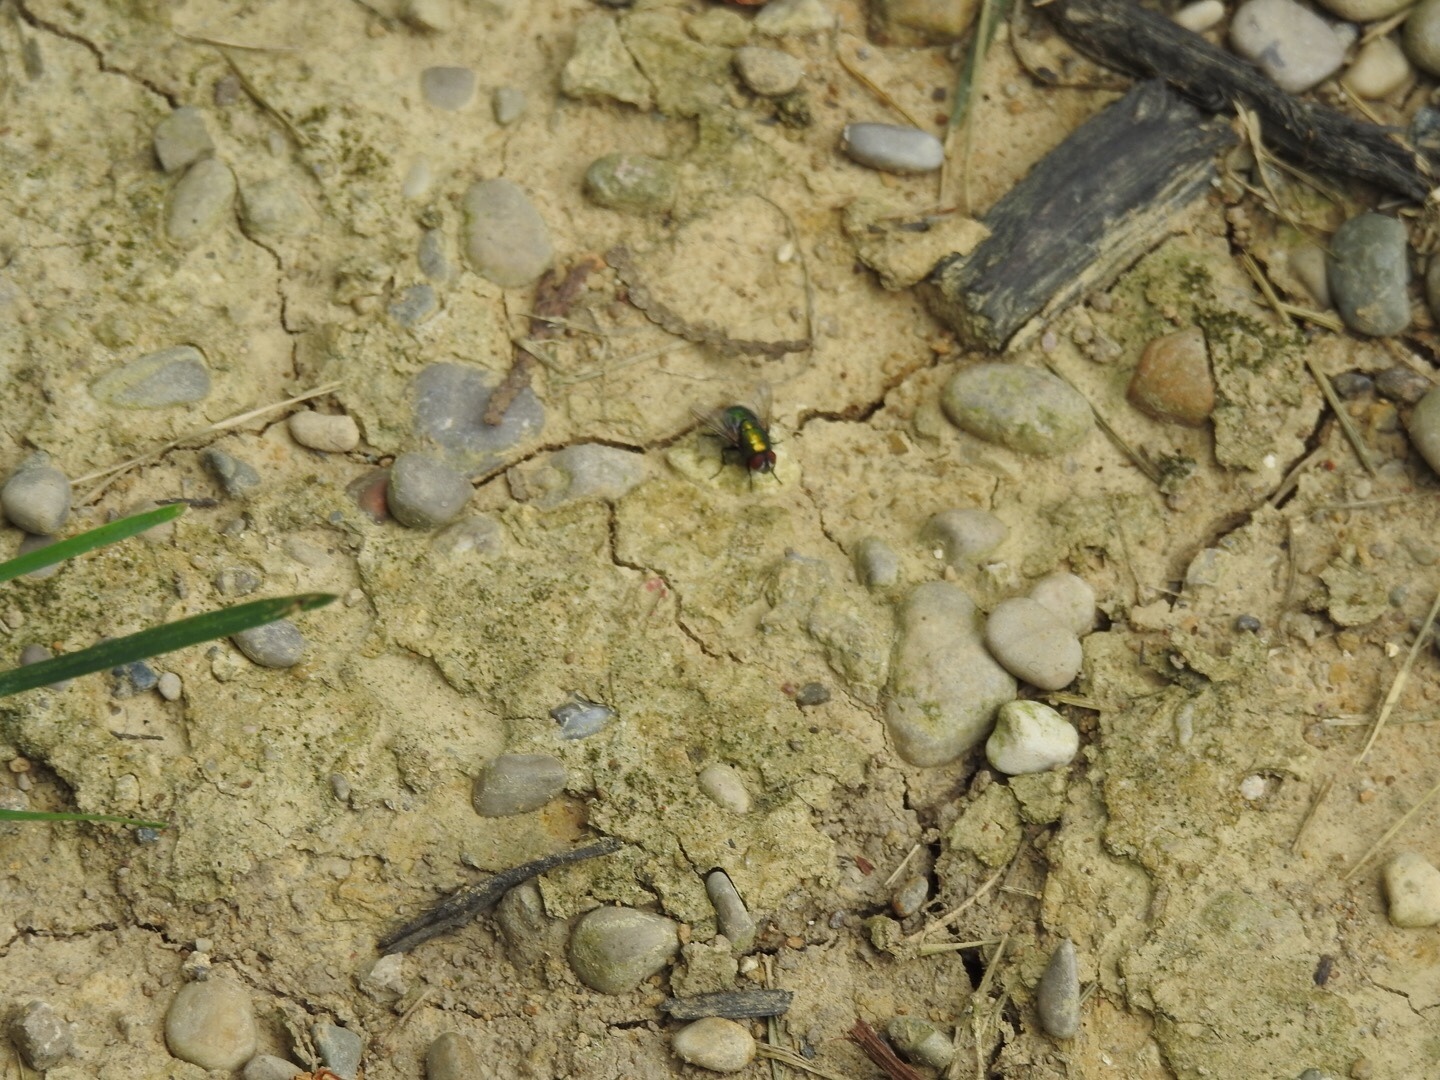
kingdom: Animalia
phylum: Arthropoda
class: Insecta
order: Diptera
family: Calliphoridae
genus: Lucilia
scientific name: Lucilia sericata
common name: Blow fly
